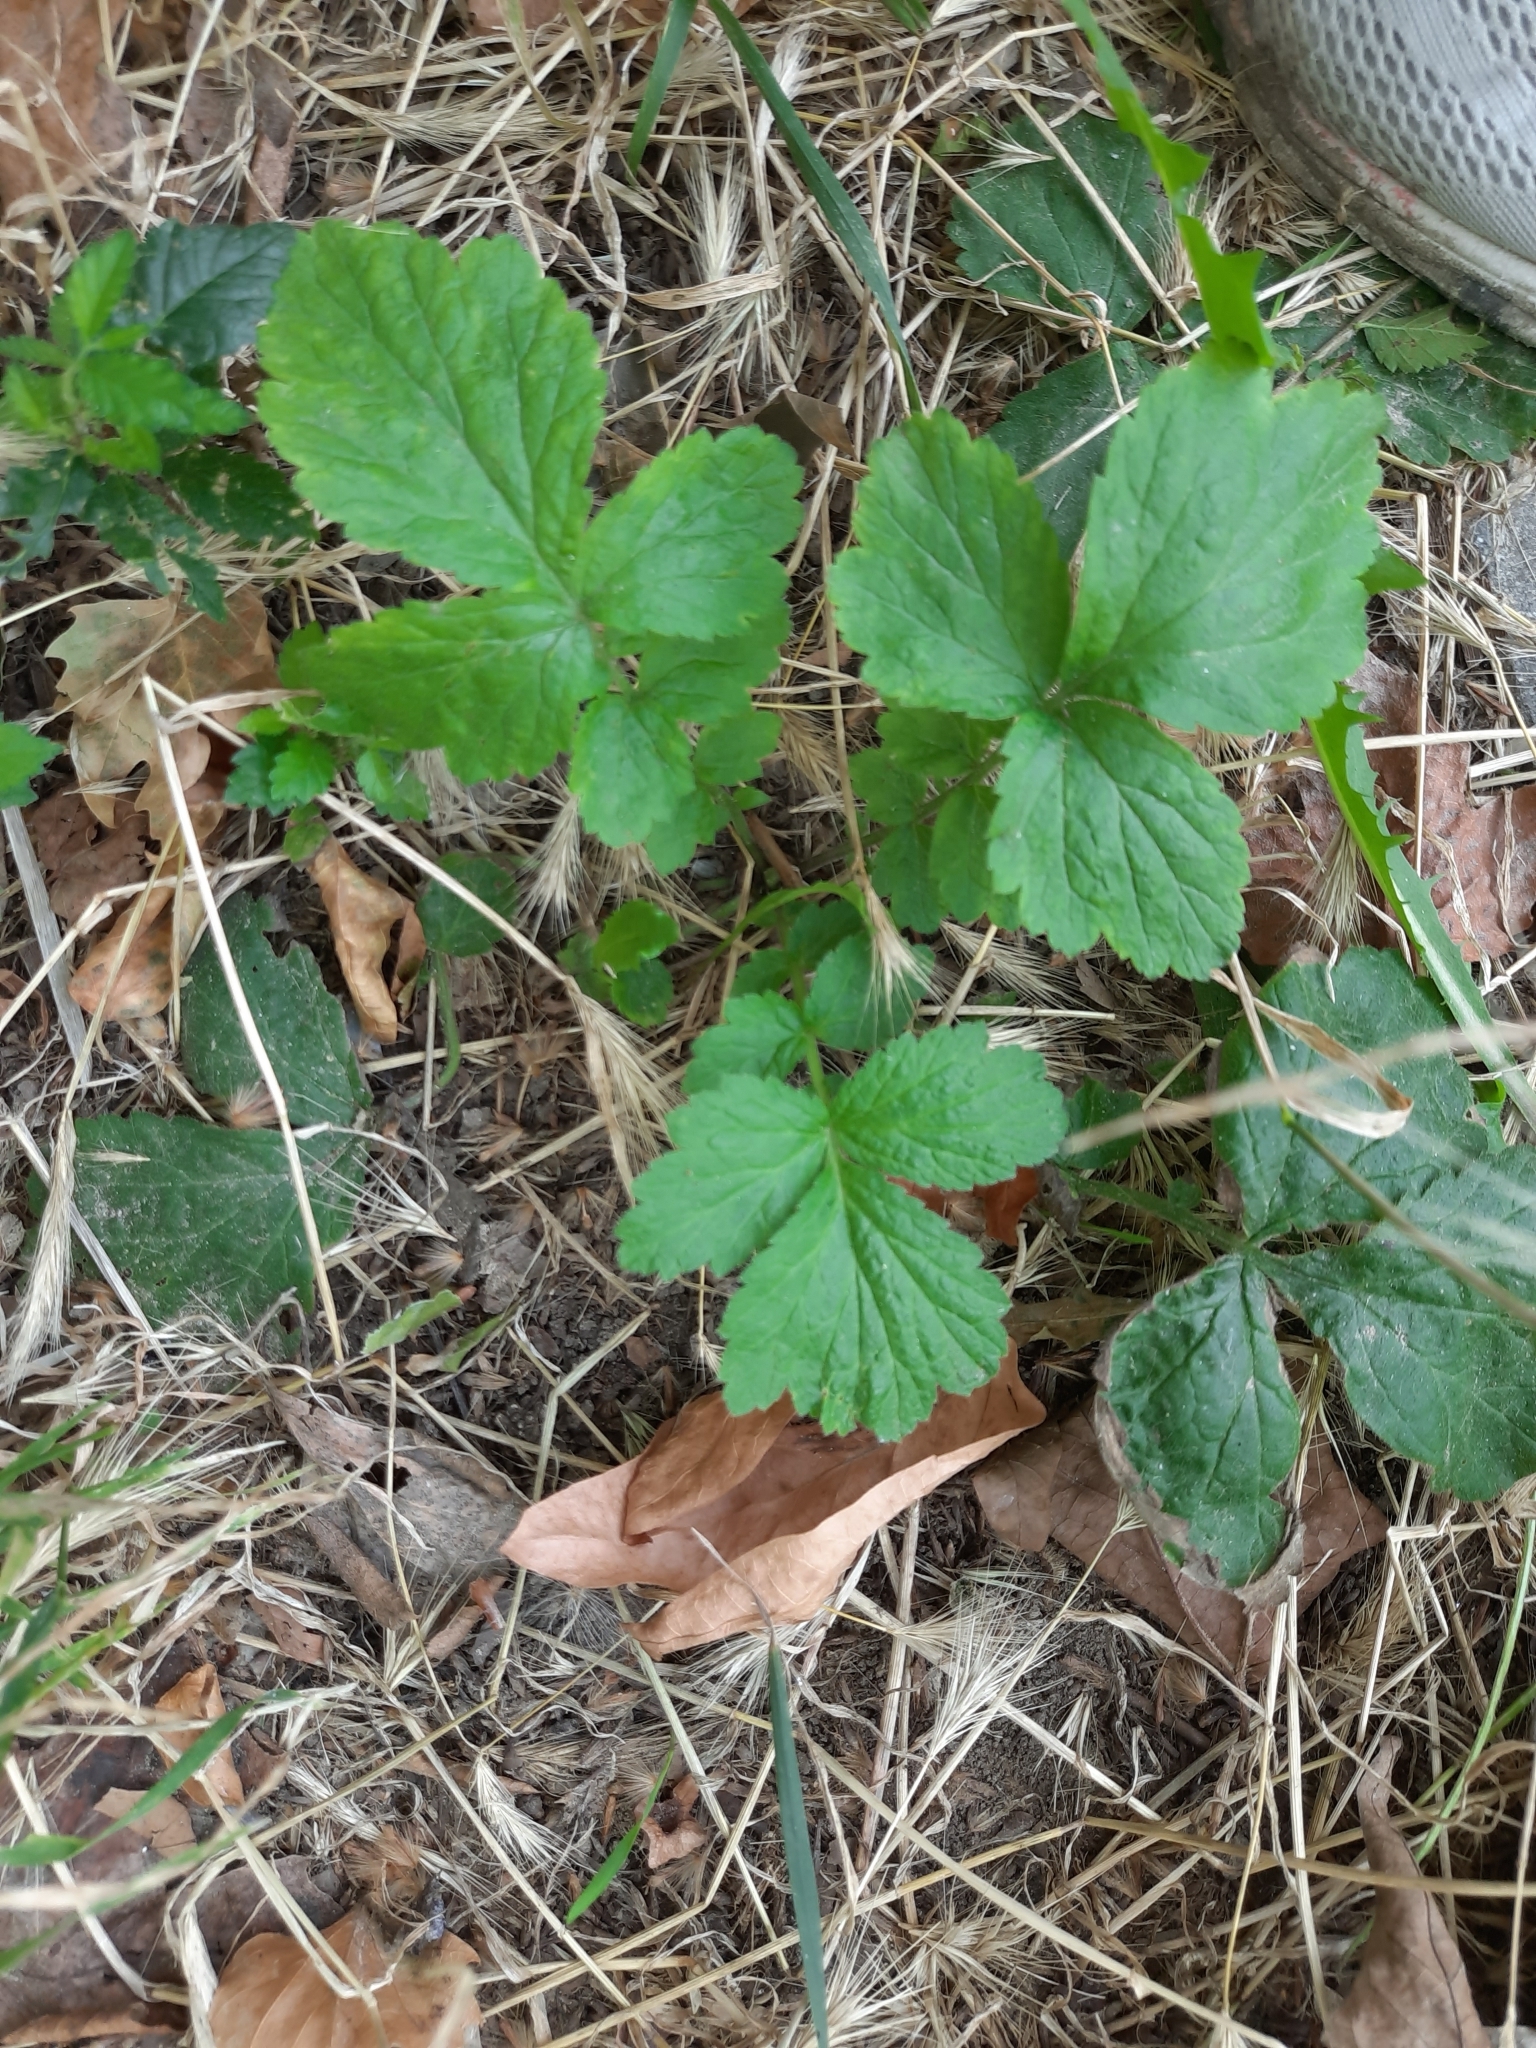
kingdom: Plantae
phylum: Tracheophyta
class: Magnoliopsida
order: Rosales
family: Rosaceae
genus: Geum
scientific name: Geum urbanum
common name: Wood avens
